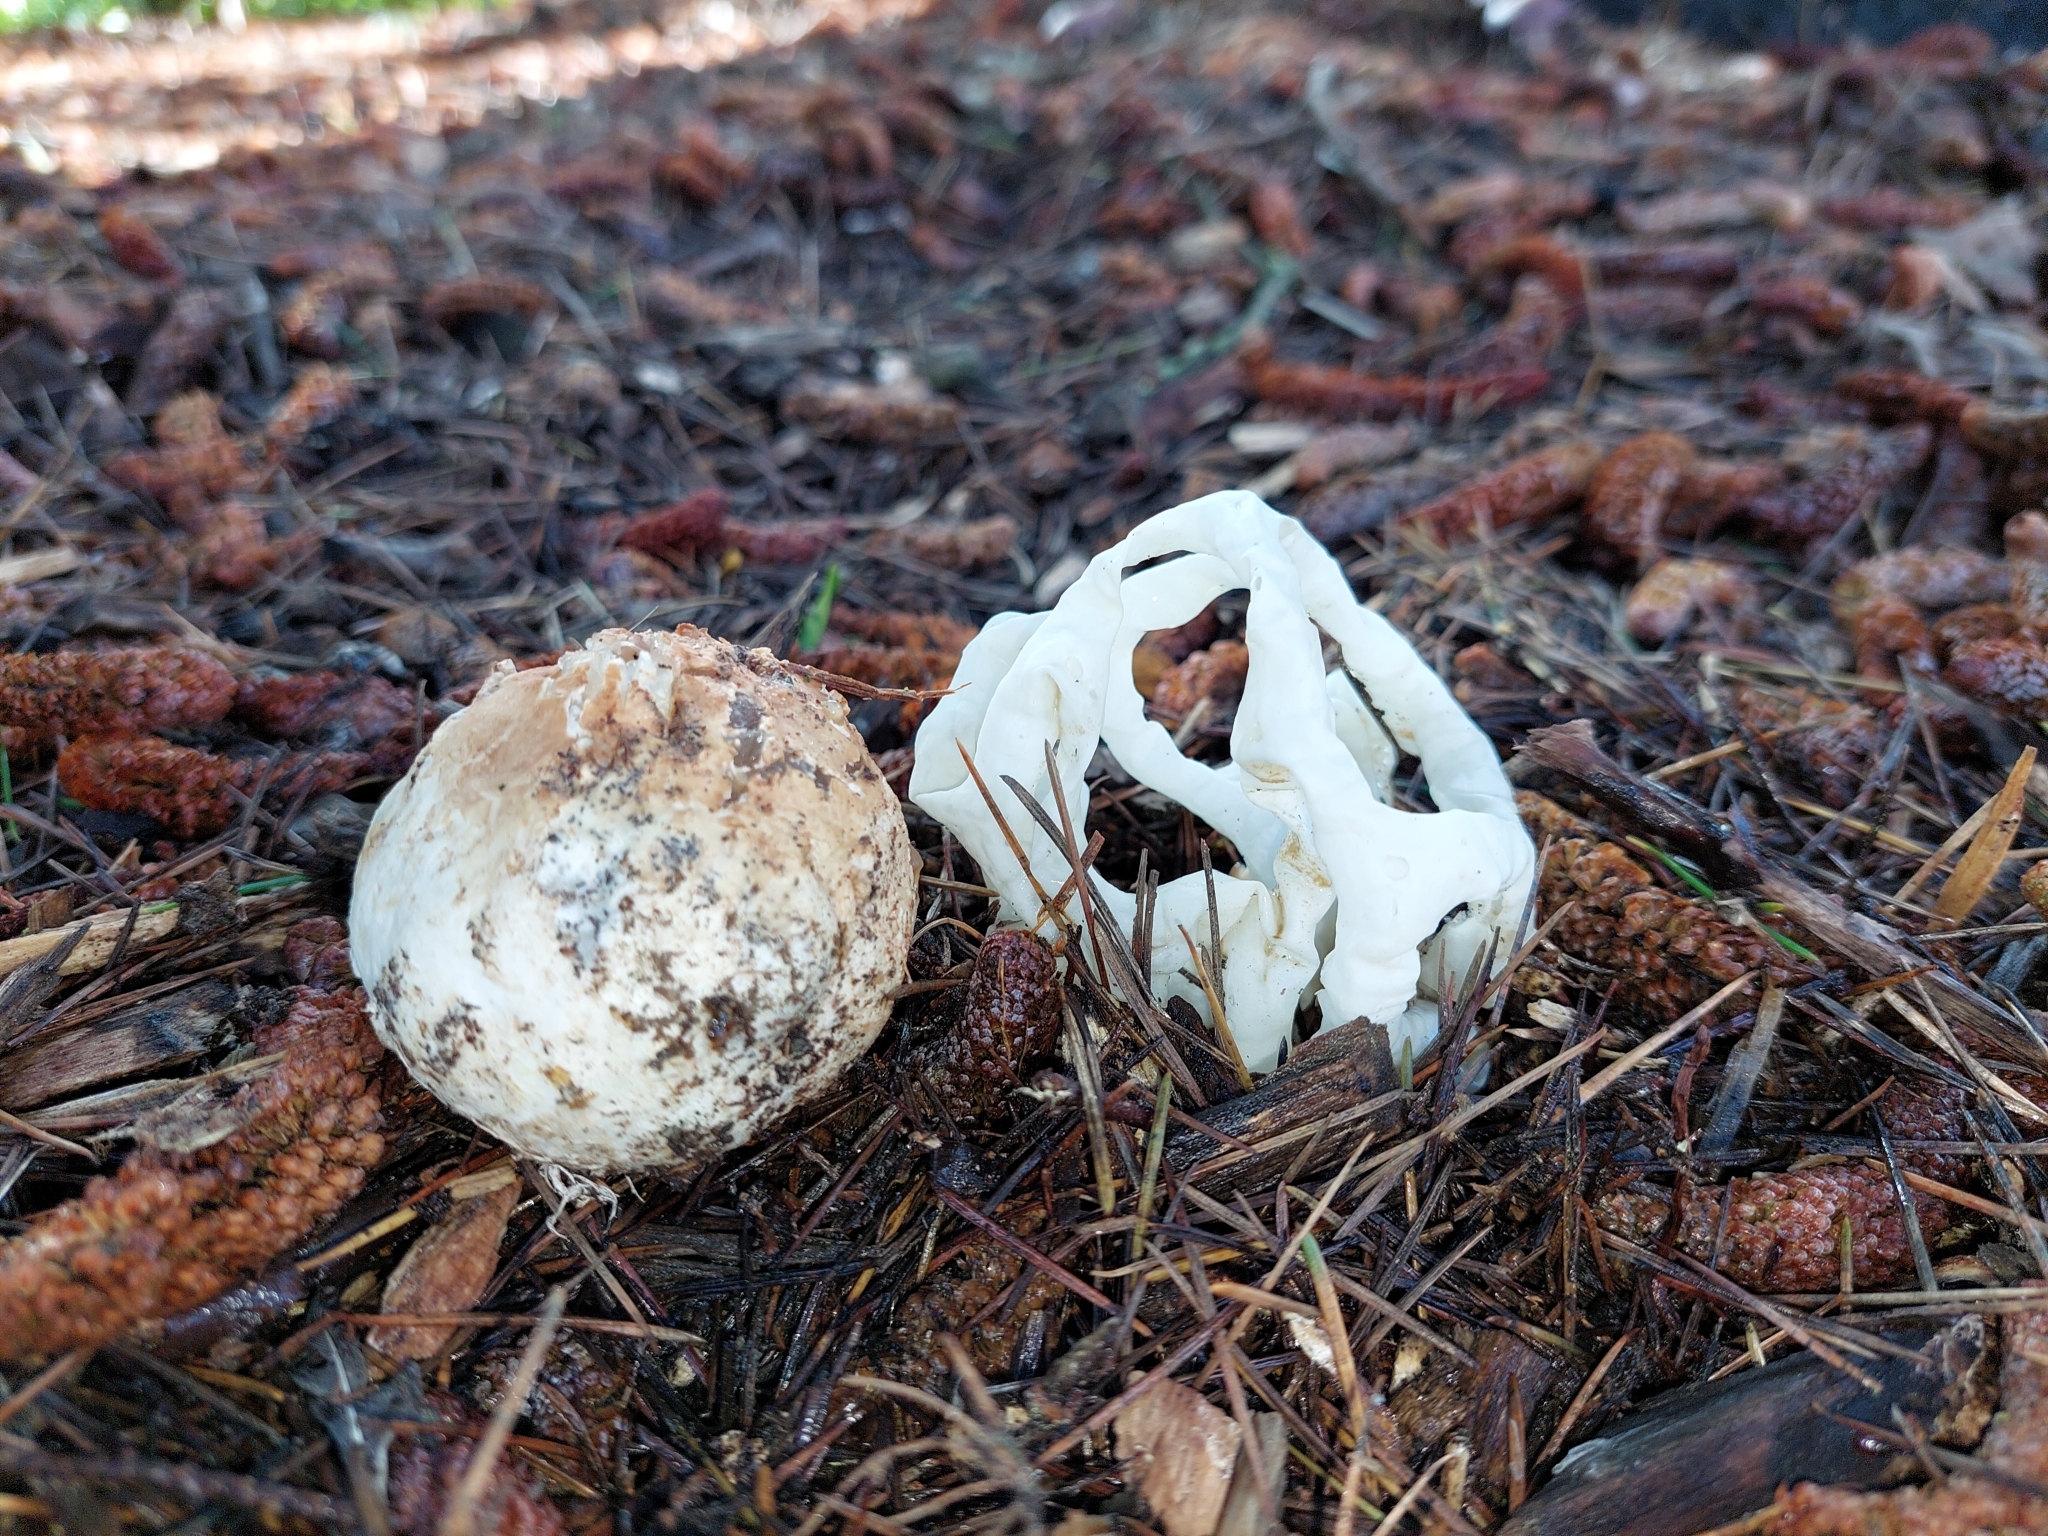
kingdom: Fungi
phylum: Basidiomycota
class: Agaricomycetes
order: Phallales
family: Phallaceae
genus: Ileodictyon
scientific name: Ileodictyon cibarium
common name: Basket fungus
